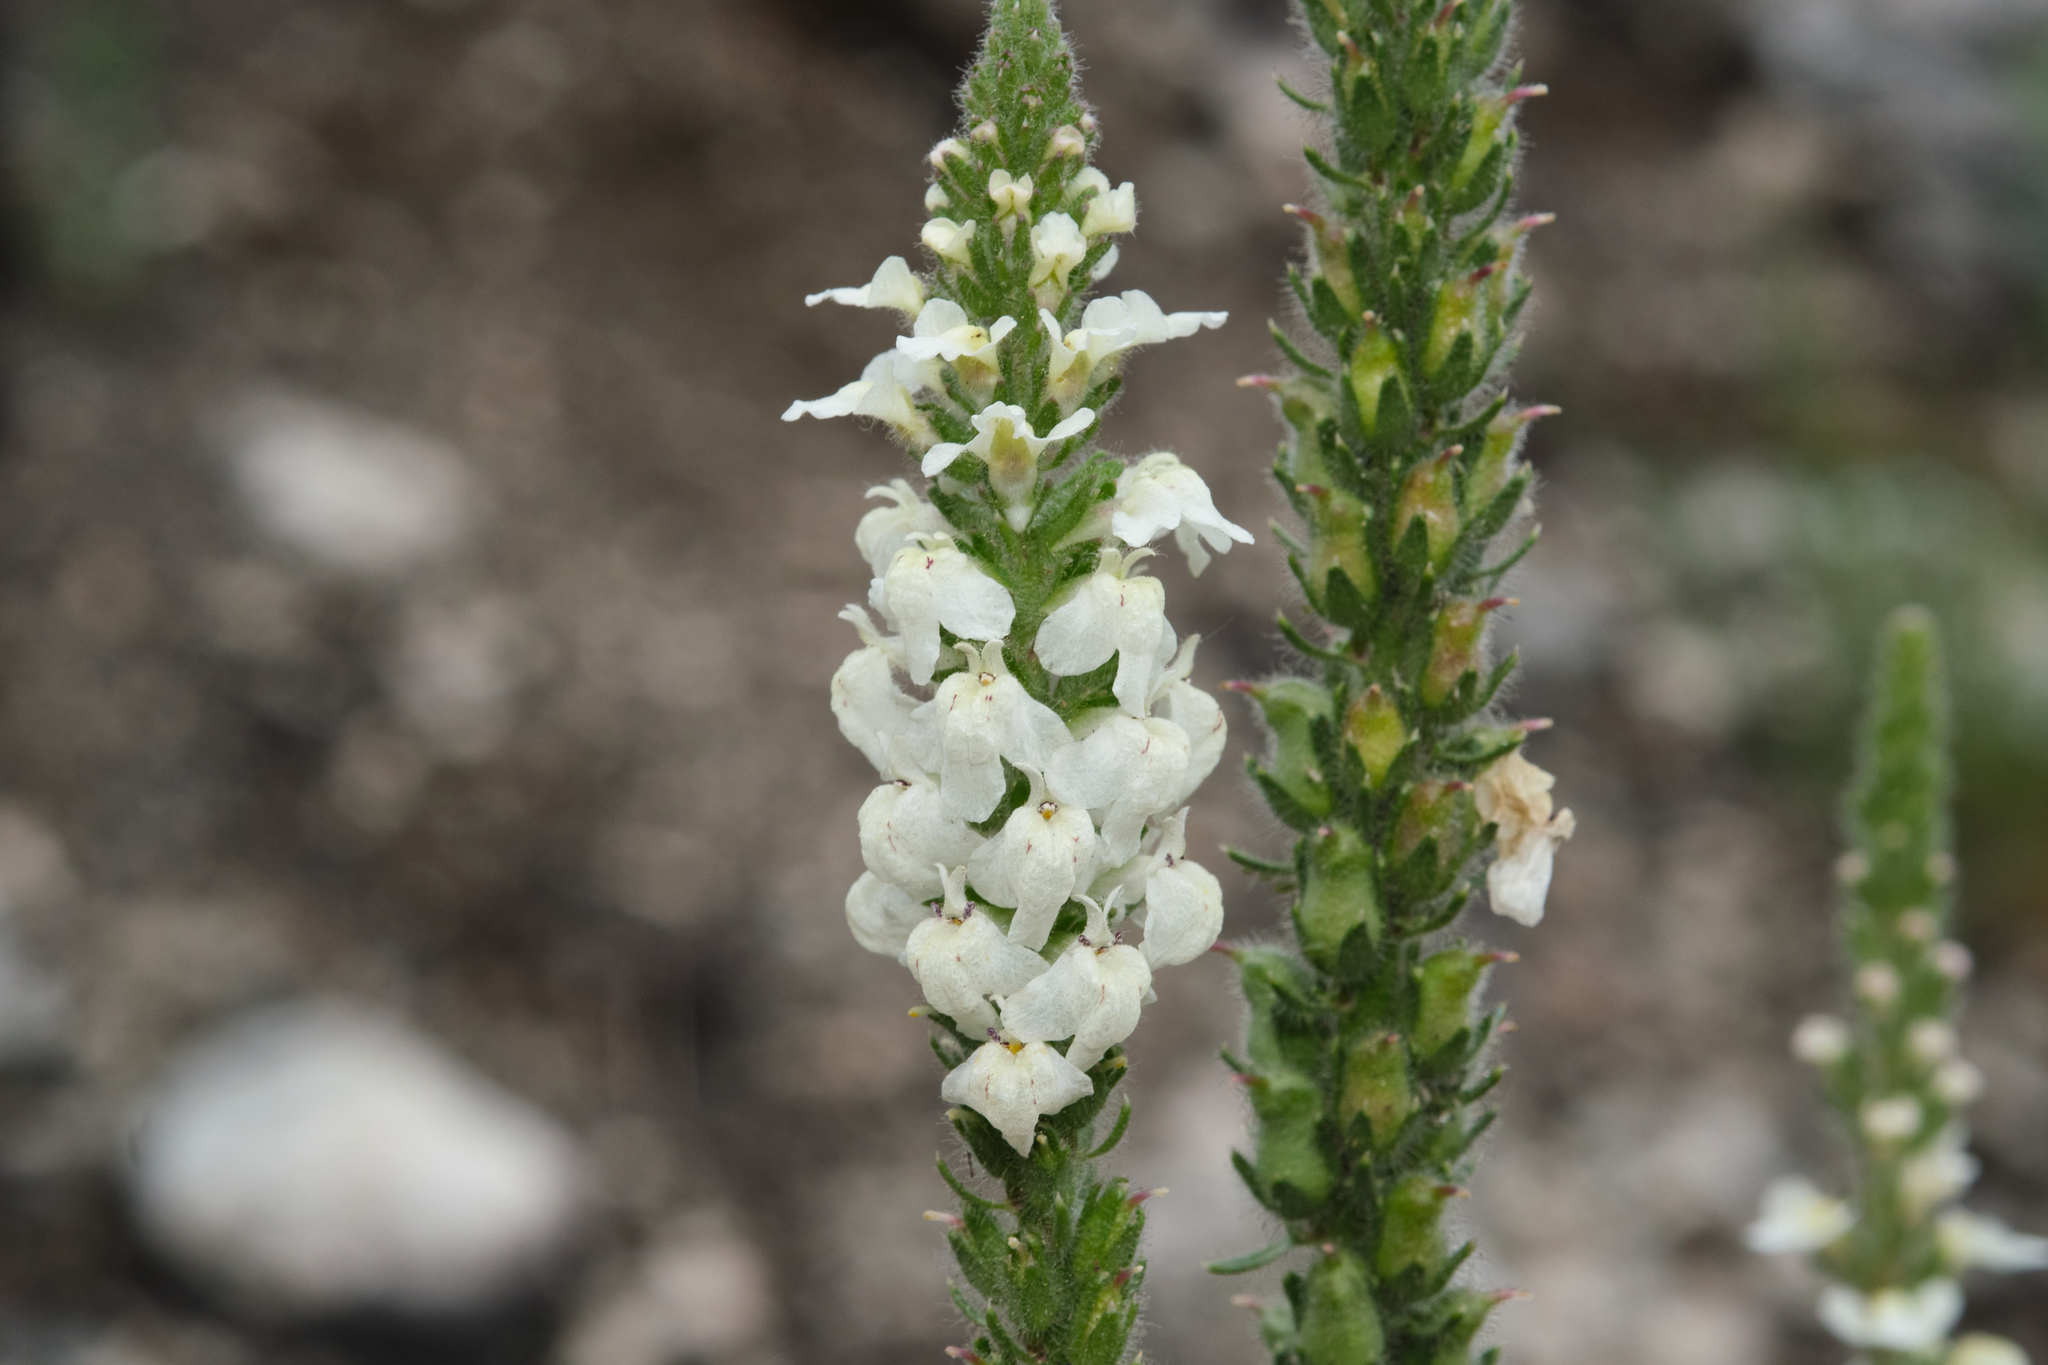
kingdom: Plantae
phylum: Tracheophyta
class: Magnoliopsida
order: Lamiales
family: Plantaginaceae
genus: Sairocarpus
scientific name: Sairocarpus coulterianus
